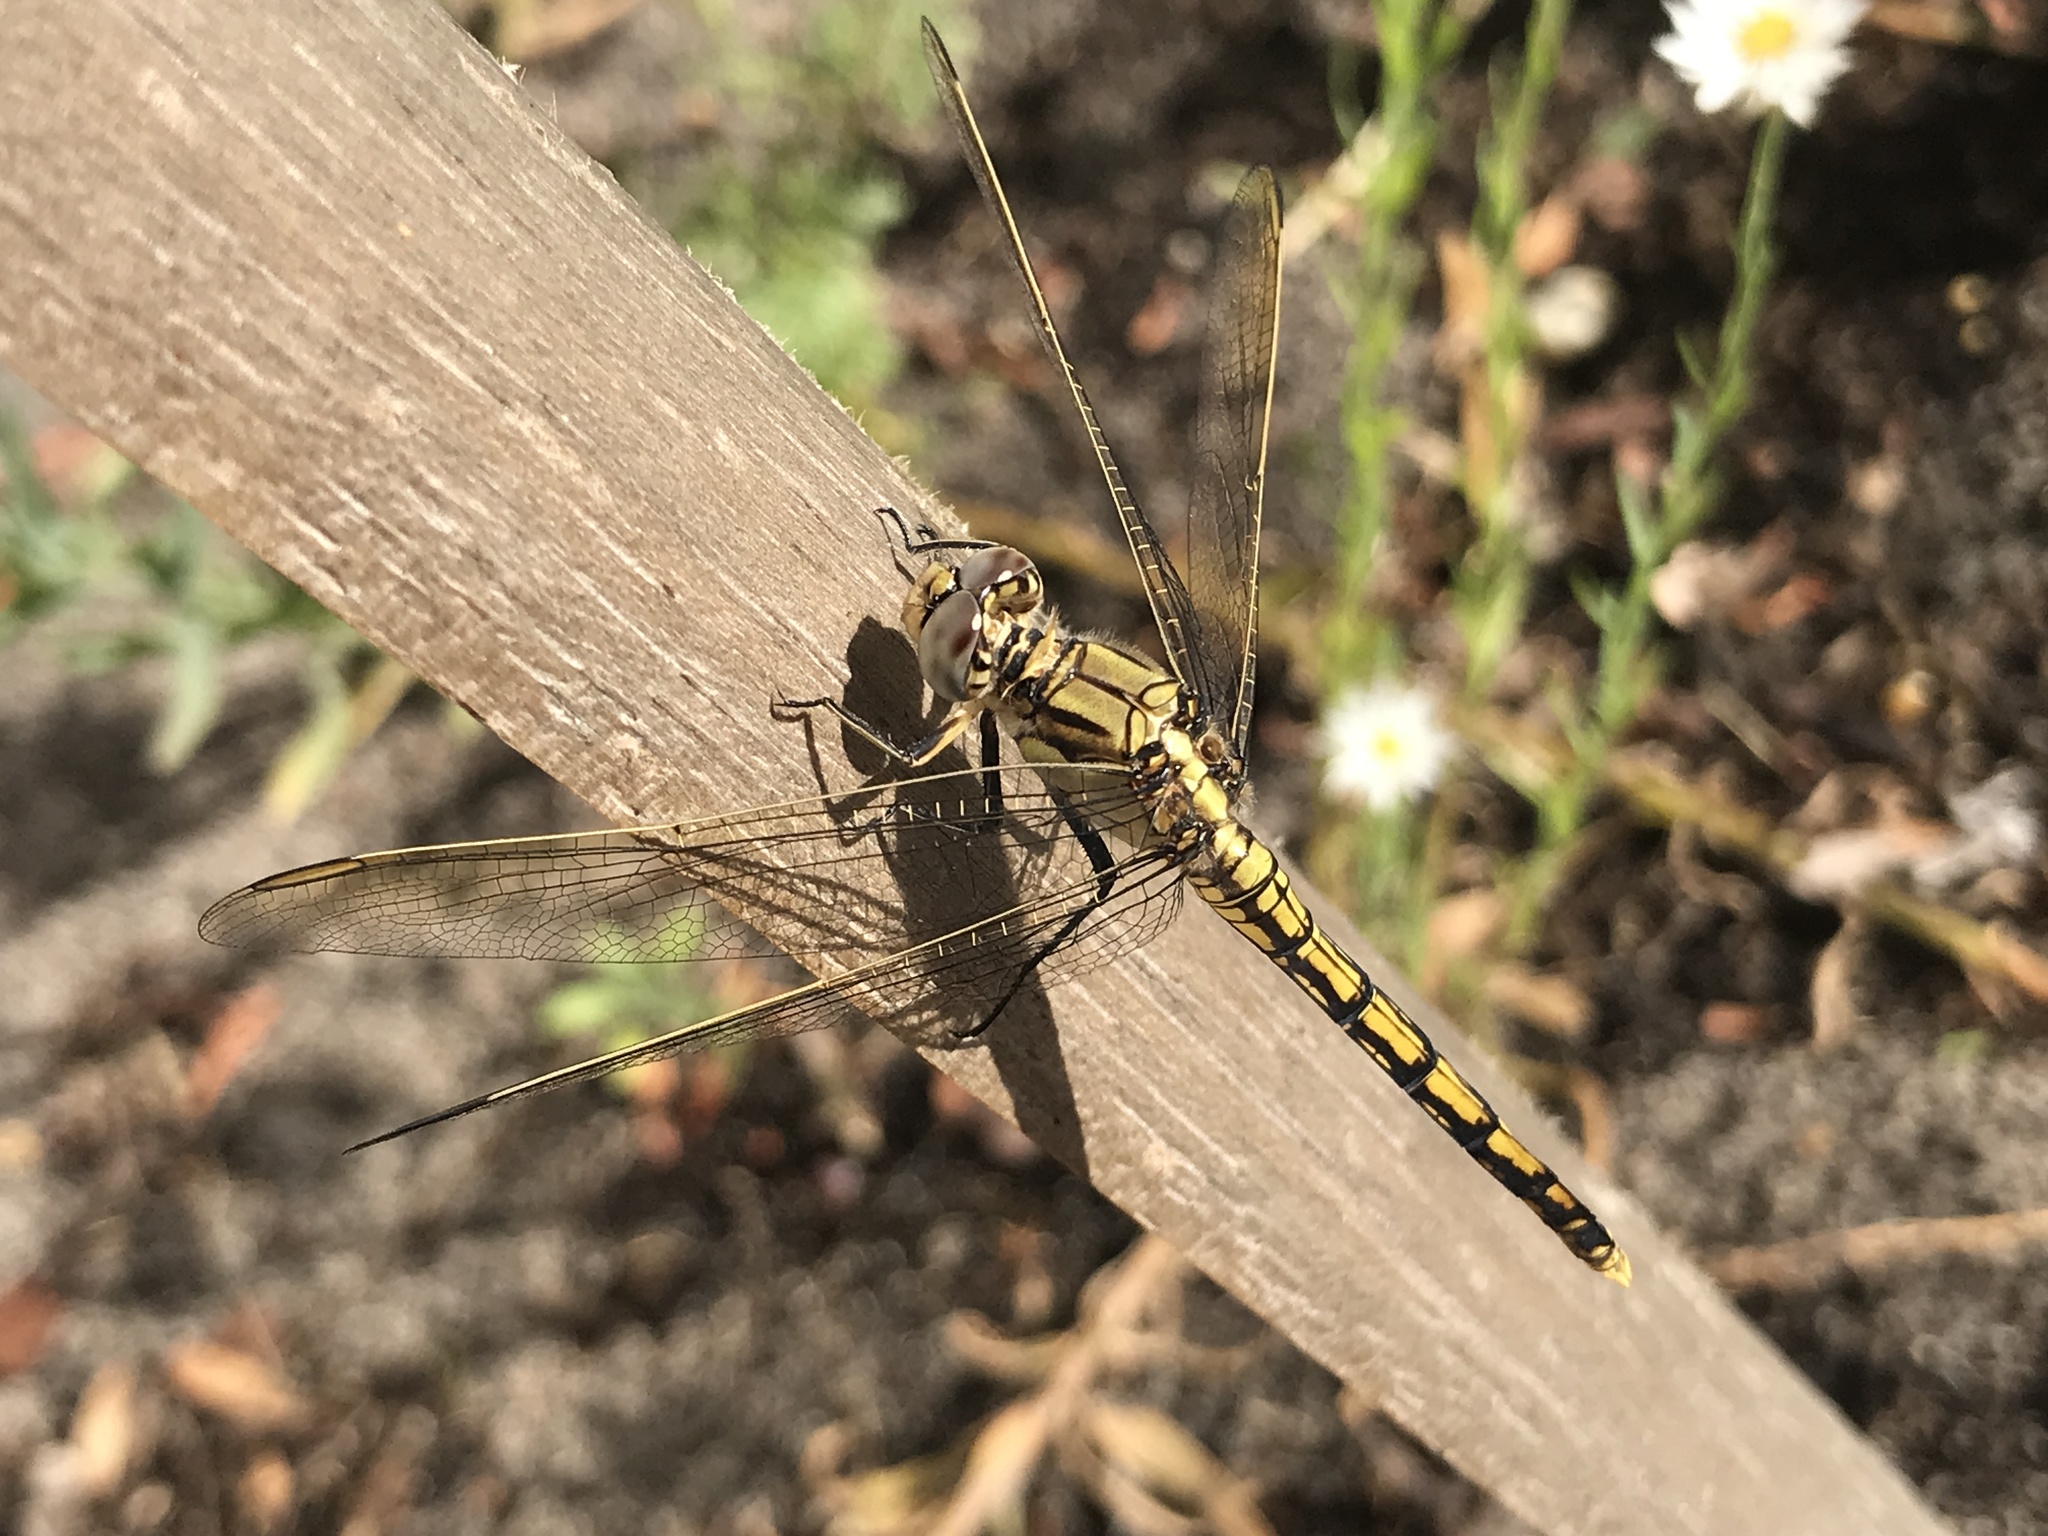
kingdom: Animalia
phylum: Arthropoda
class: Insecta
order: Odonata
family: Libellulidae
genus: Orthetrum
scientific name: Orthetrum caledonicum
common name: Blue skimmer
